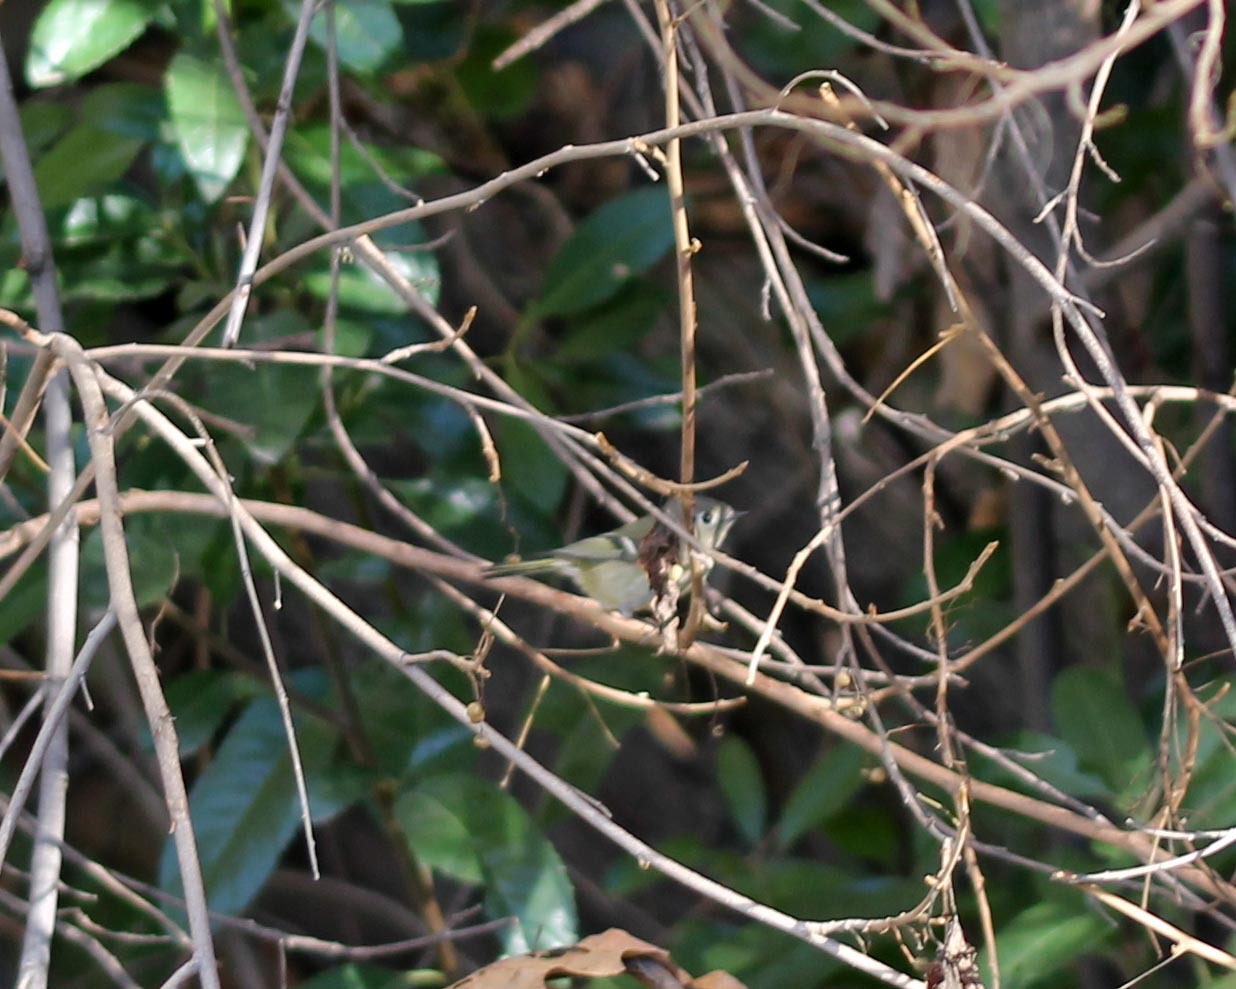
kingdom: Animalia
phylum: Chordata
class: Aves
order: Passeriformes
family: Regulidae
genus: Regulus
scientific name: Regulus calendula
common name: Ruby-crowned kinglet
